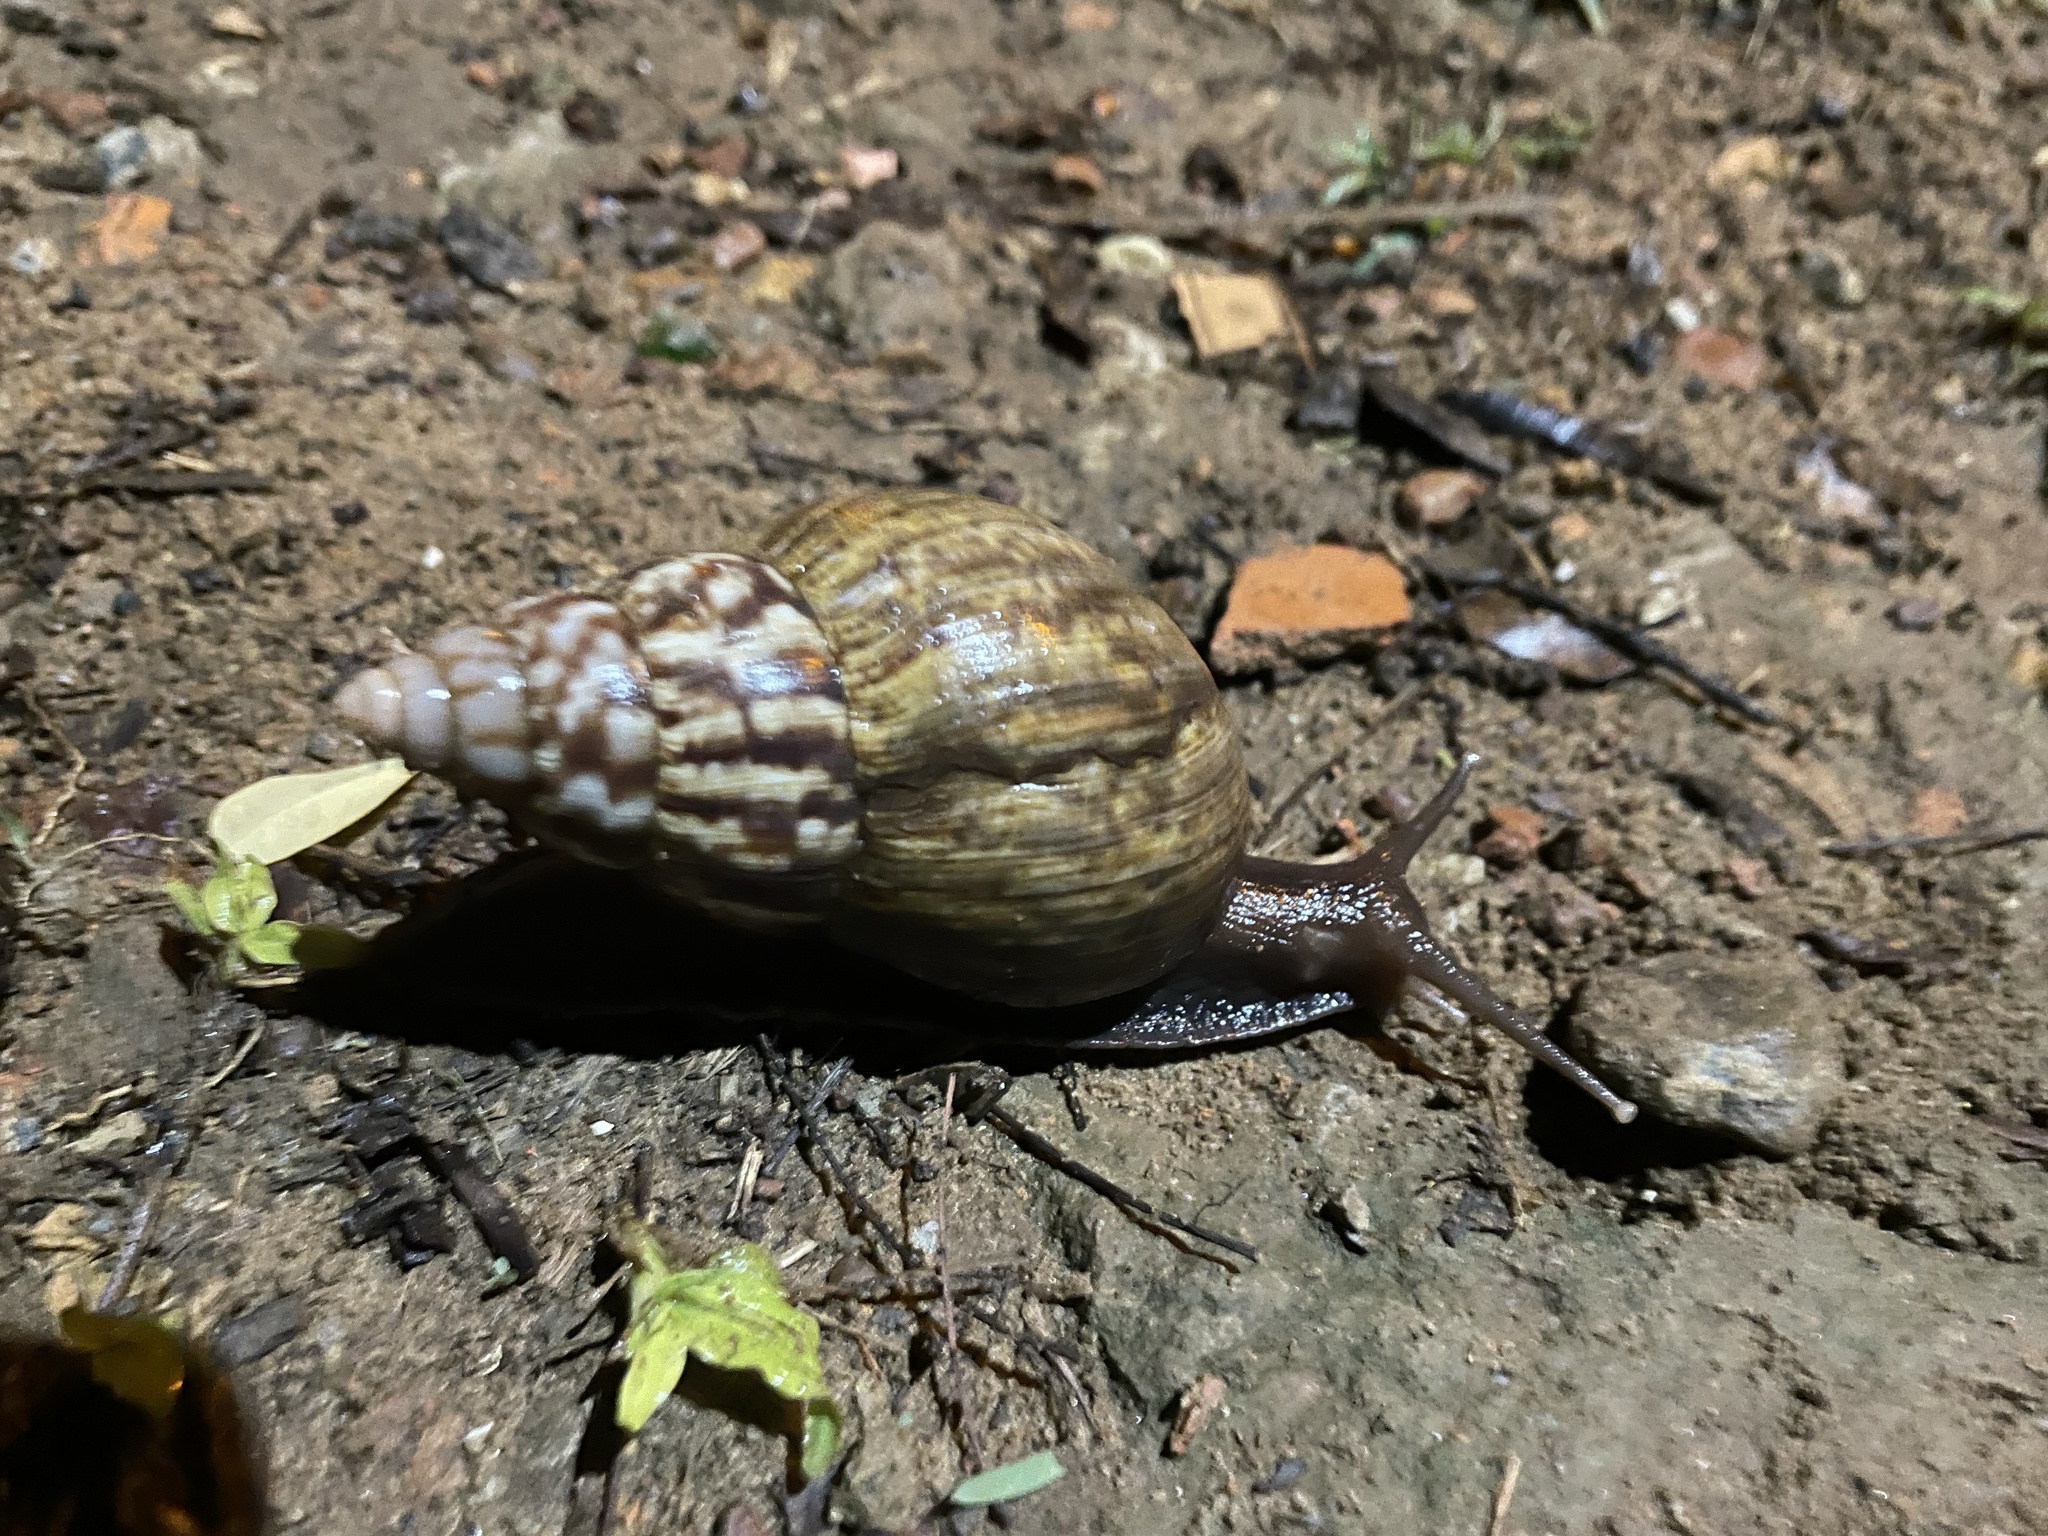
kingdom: Animalia
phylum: Mollusca
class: Gastropoda
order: Stylommatophora
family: Achatinidae
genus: Lissachatina
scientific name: Lissachatina fulica
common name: Giant african snail
